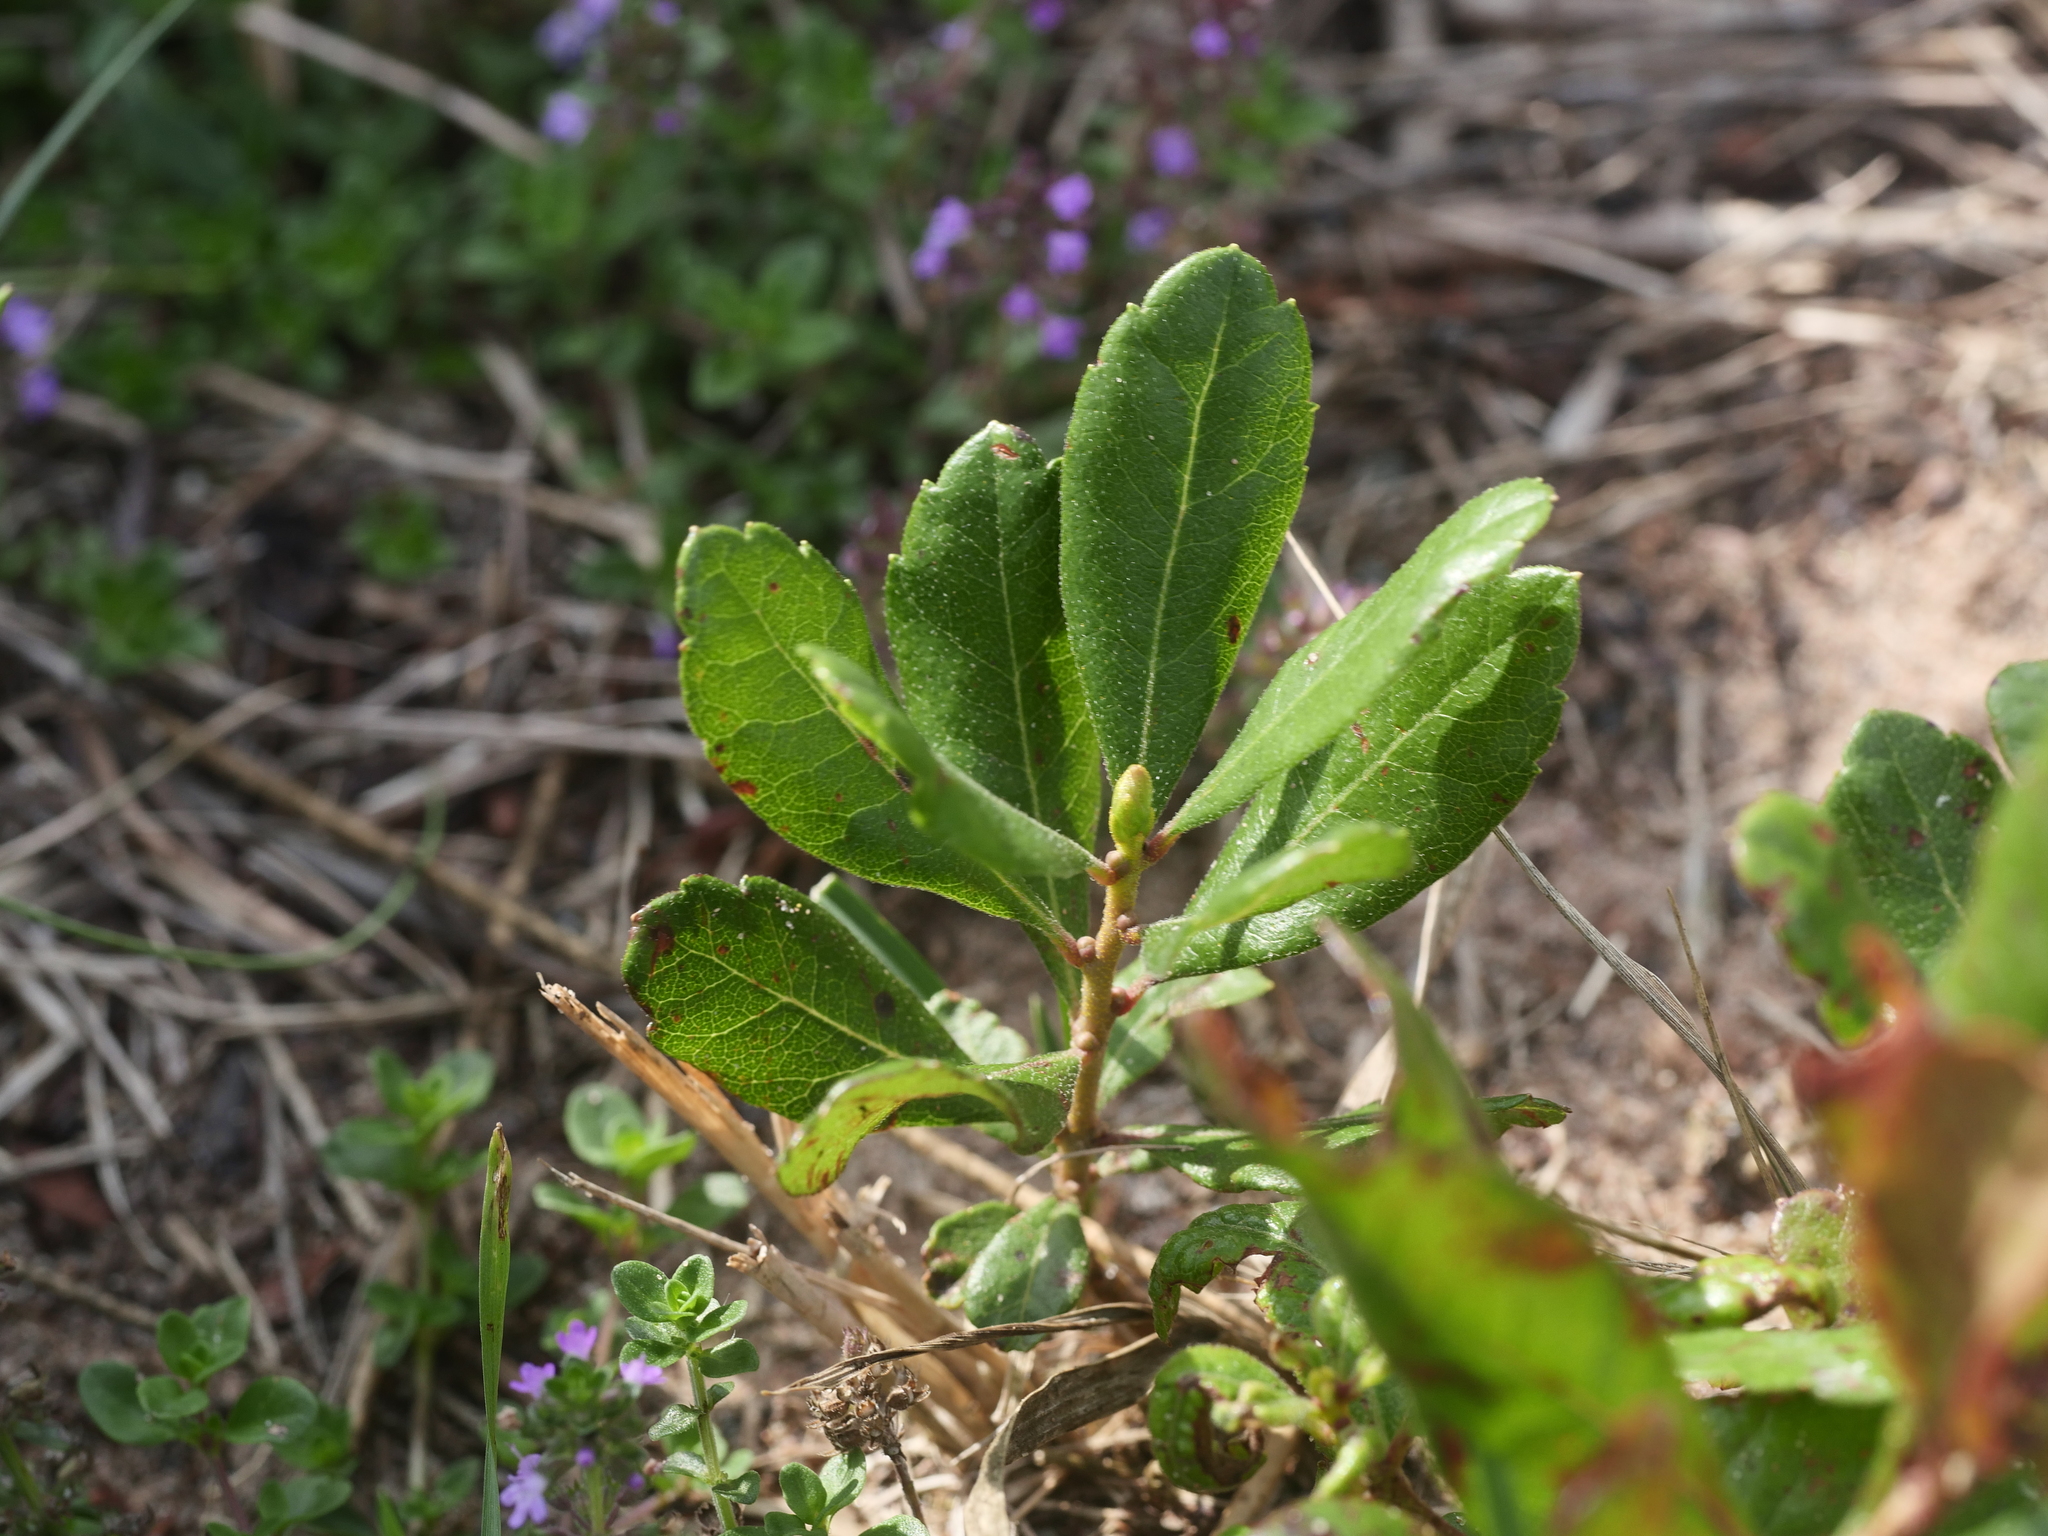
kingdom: Plantae
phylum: Tracheophyta
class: Magnoliopsida
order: Fagales
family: Myricaceae
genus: Morella
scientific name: Morella pensylvanica
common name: Northern bayberry
